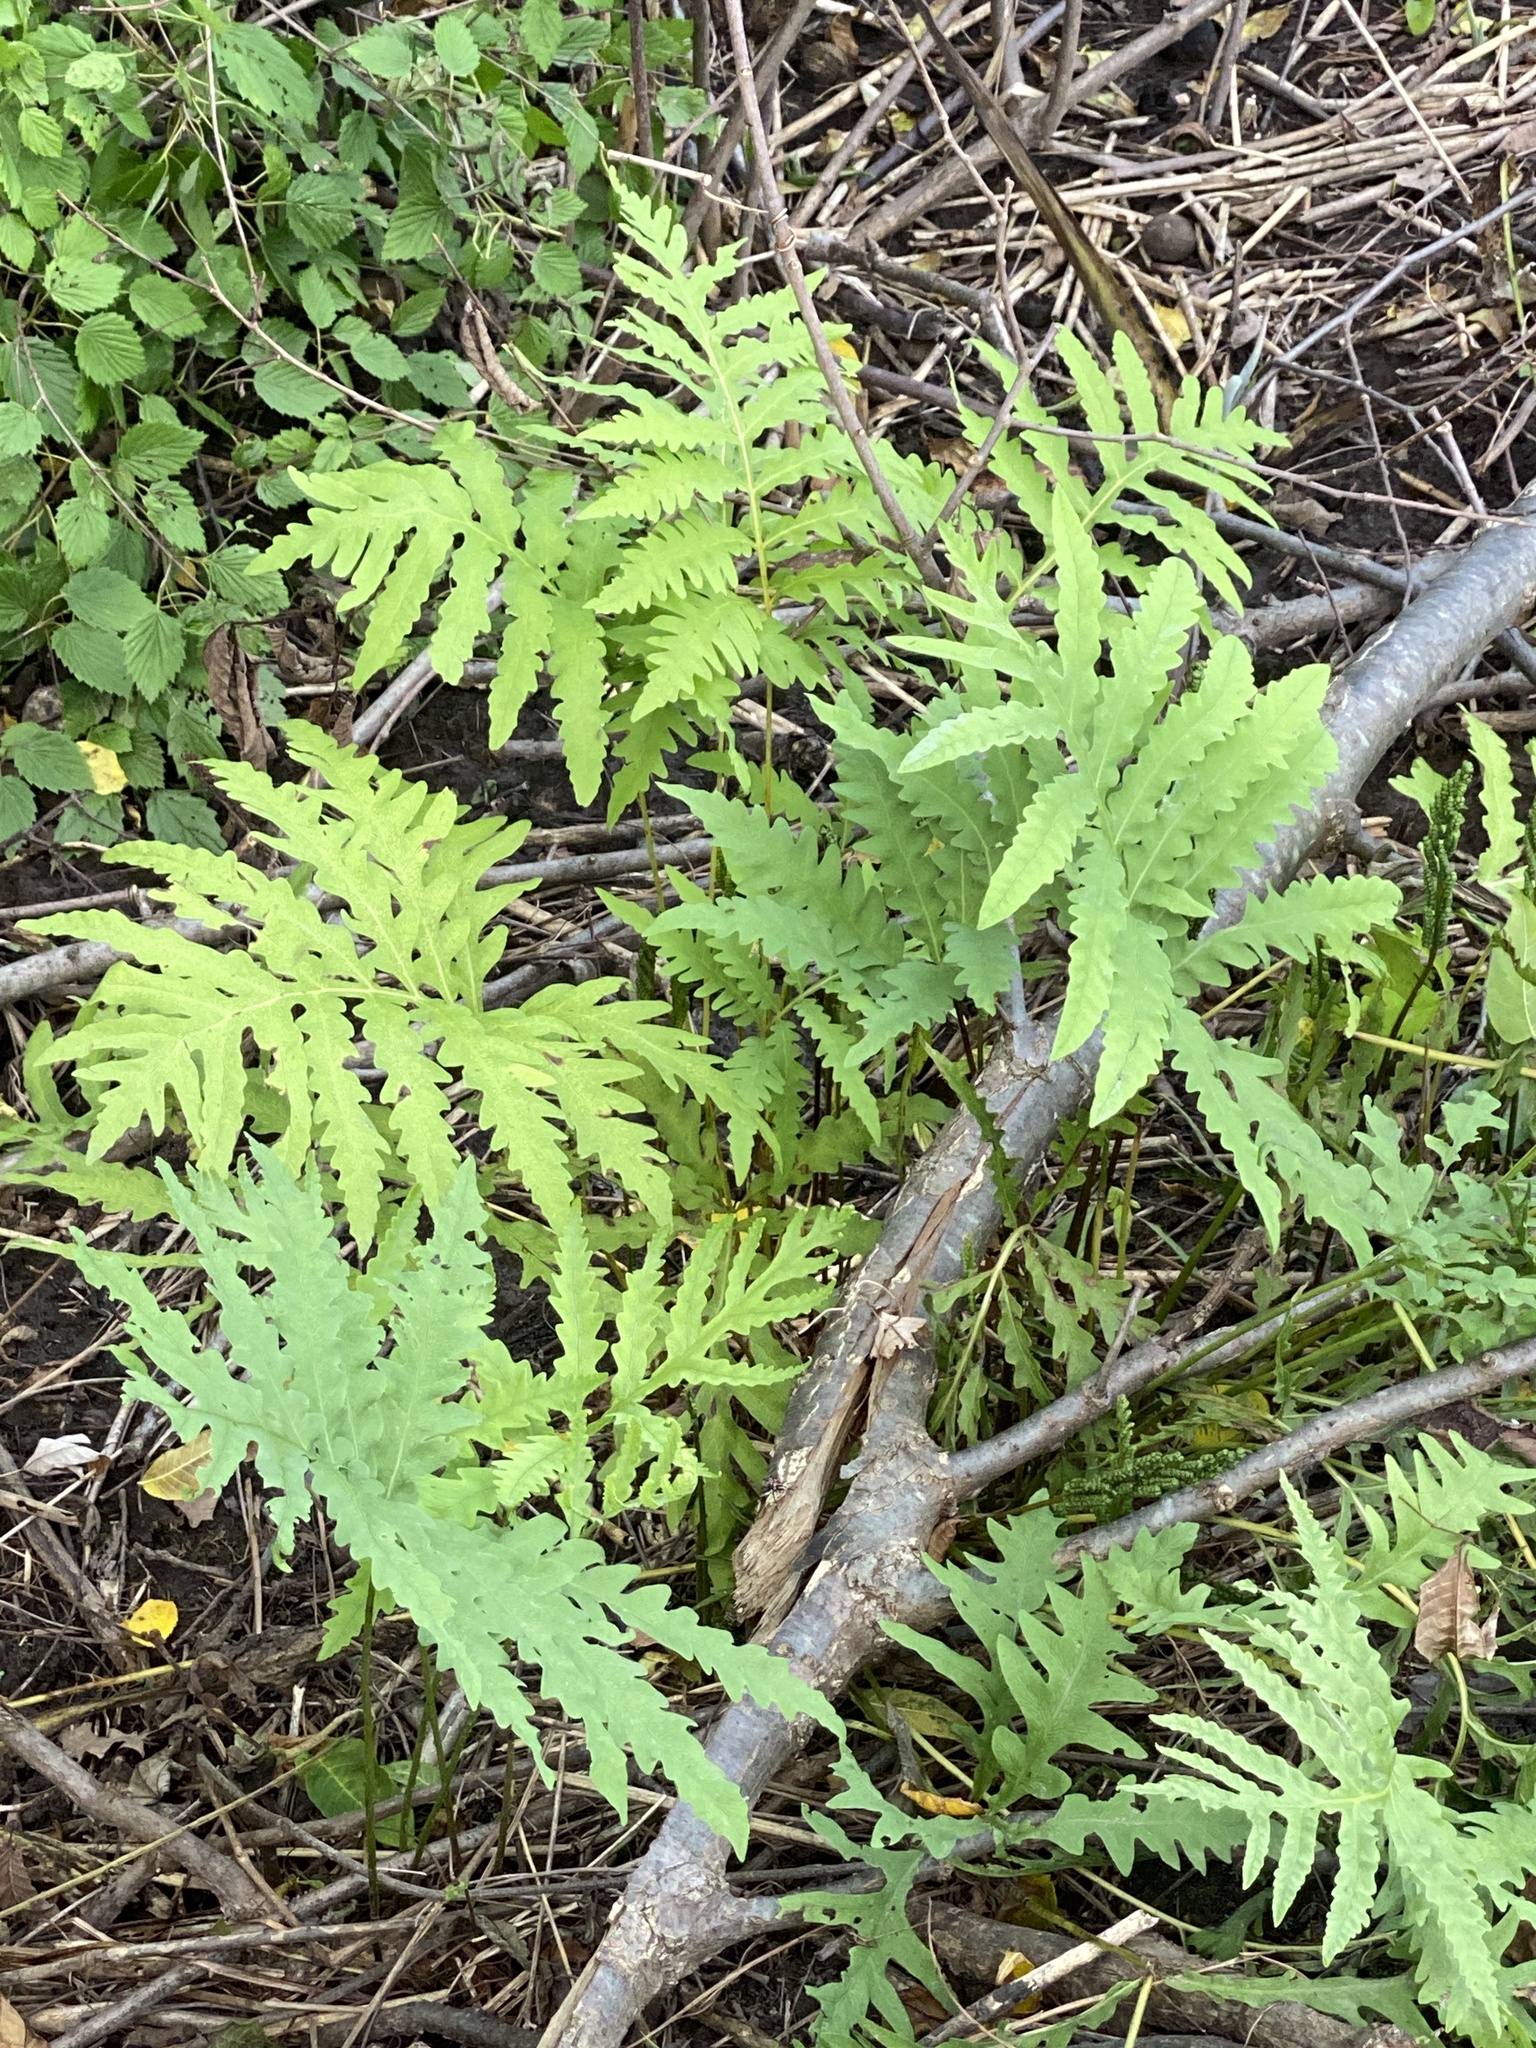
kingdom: Plantae
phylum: Tracheophyta
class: Polypodiopsida
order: Polypodiales
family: Onocleaceae
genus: Onoclea
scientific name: Onoclea sensibilis
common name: Sensitive fern
